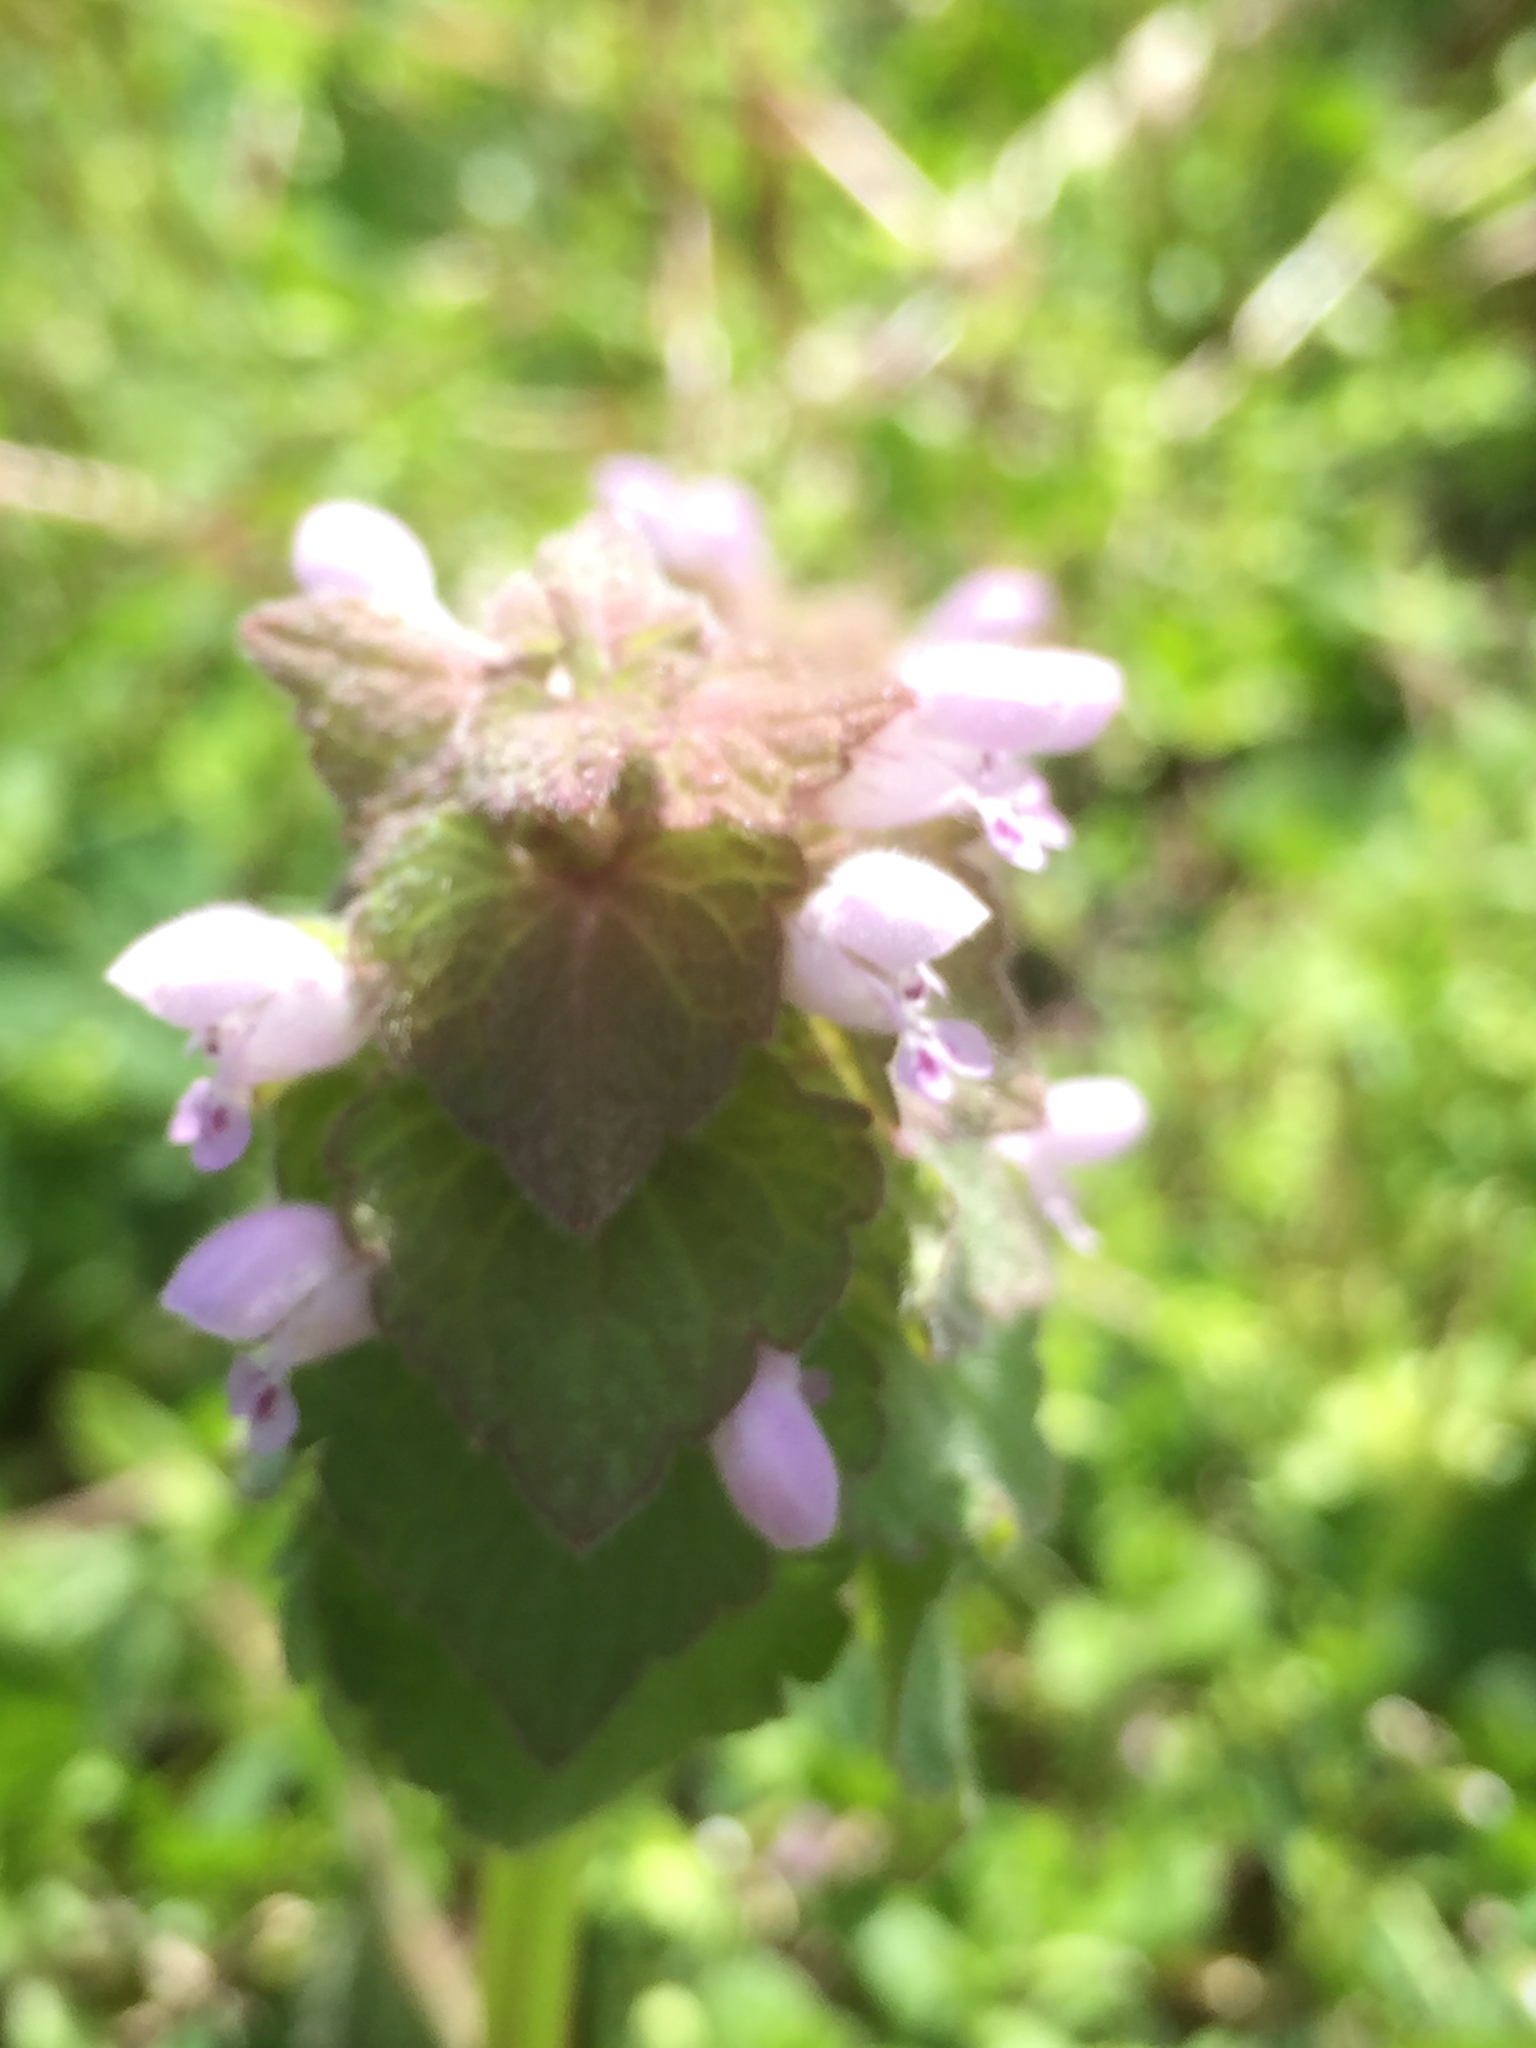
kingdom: Plantae
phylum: Tracheophyta
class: Magnoliopsida
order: Lamiales
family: Lamiaceae
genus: Lamium
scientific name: Lamium purpureum
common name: Red dead-nettle
